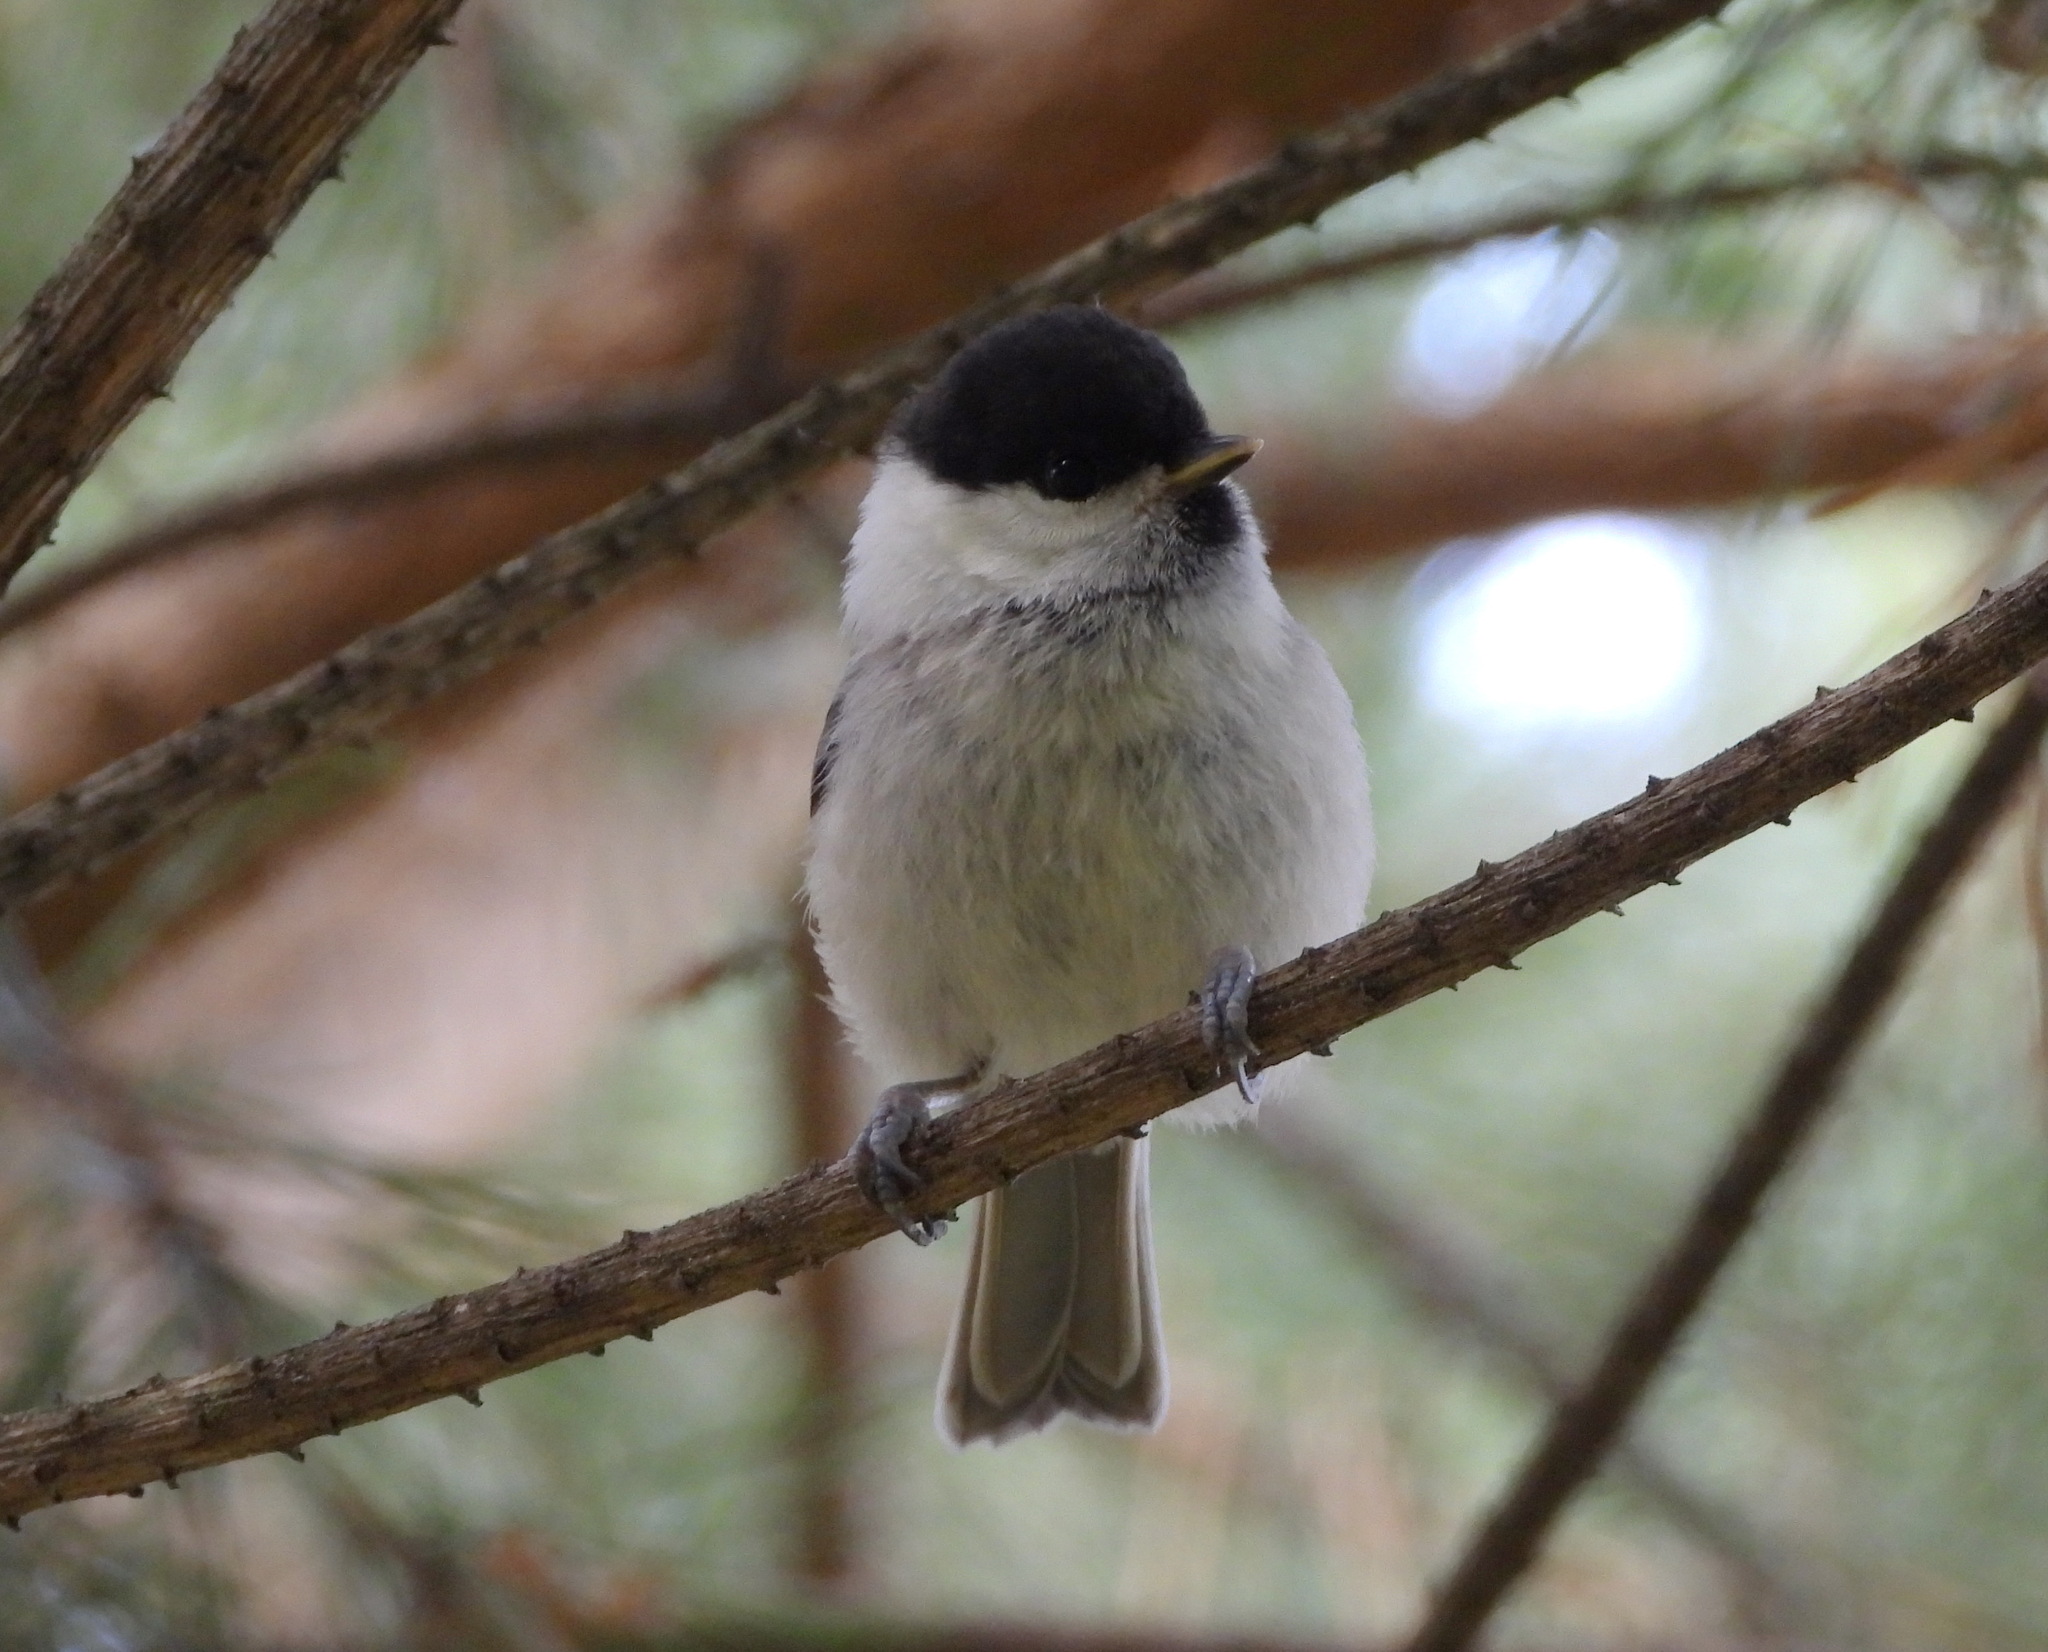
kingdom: Animalia
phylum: Chordata
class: Aves
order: Passeriformes
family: Paridae
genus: Poecile
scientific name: Poecile montanus
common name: Willow tit
